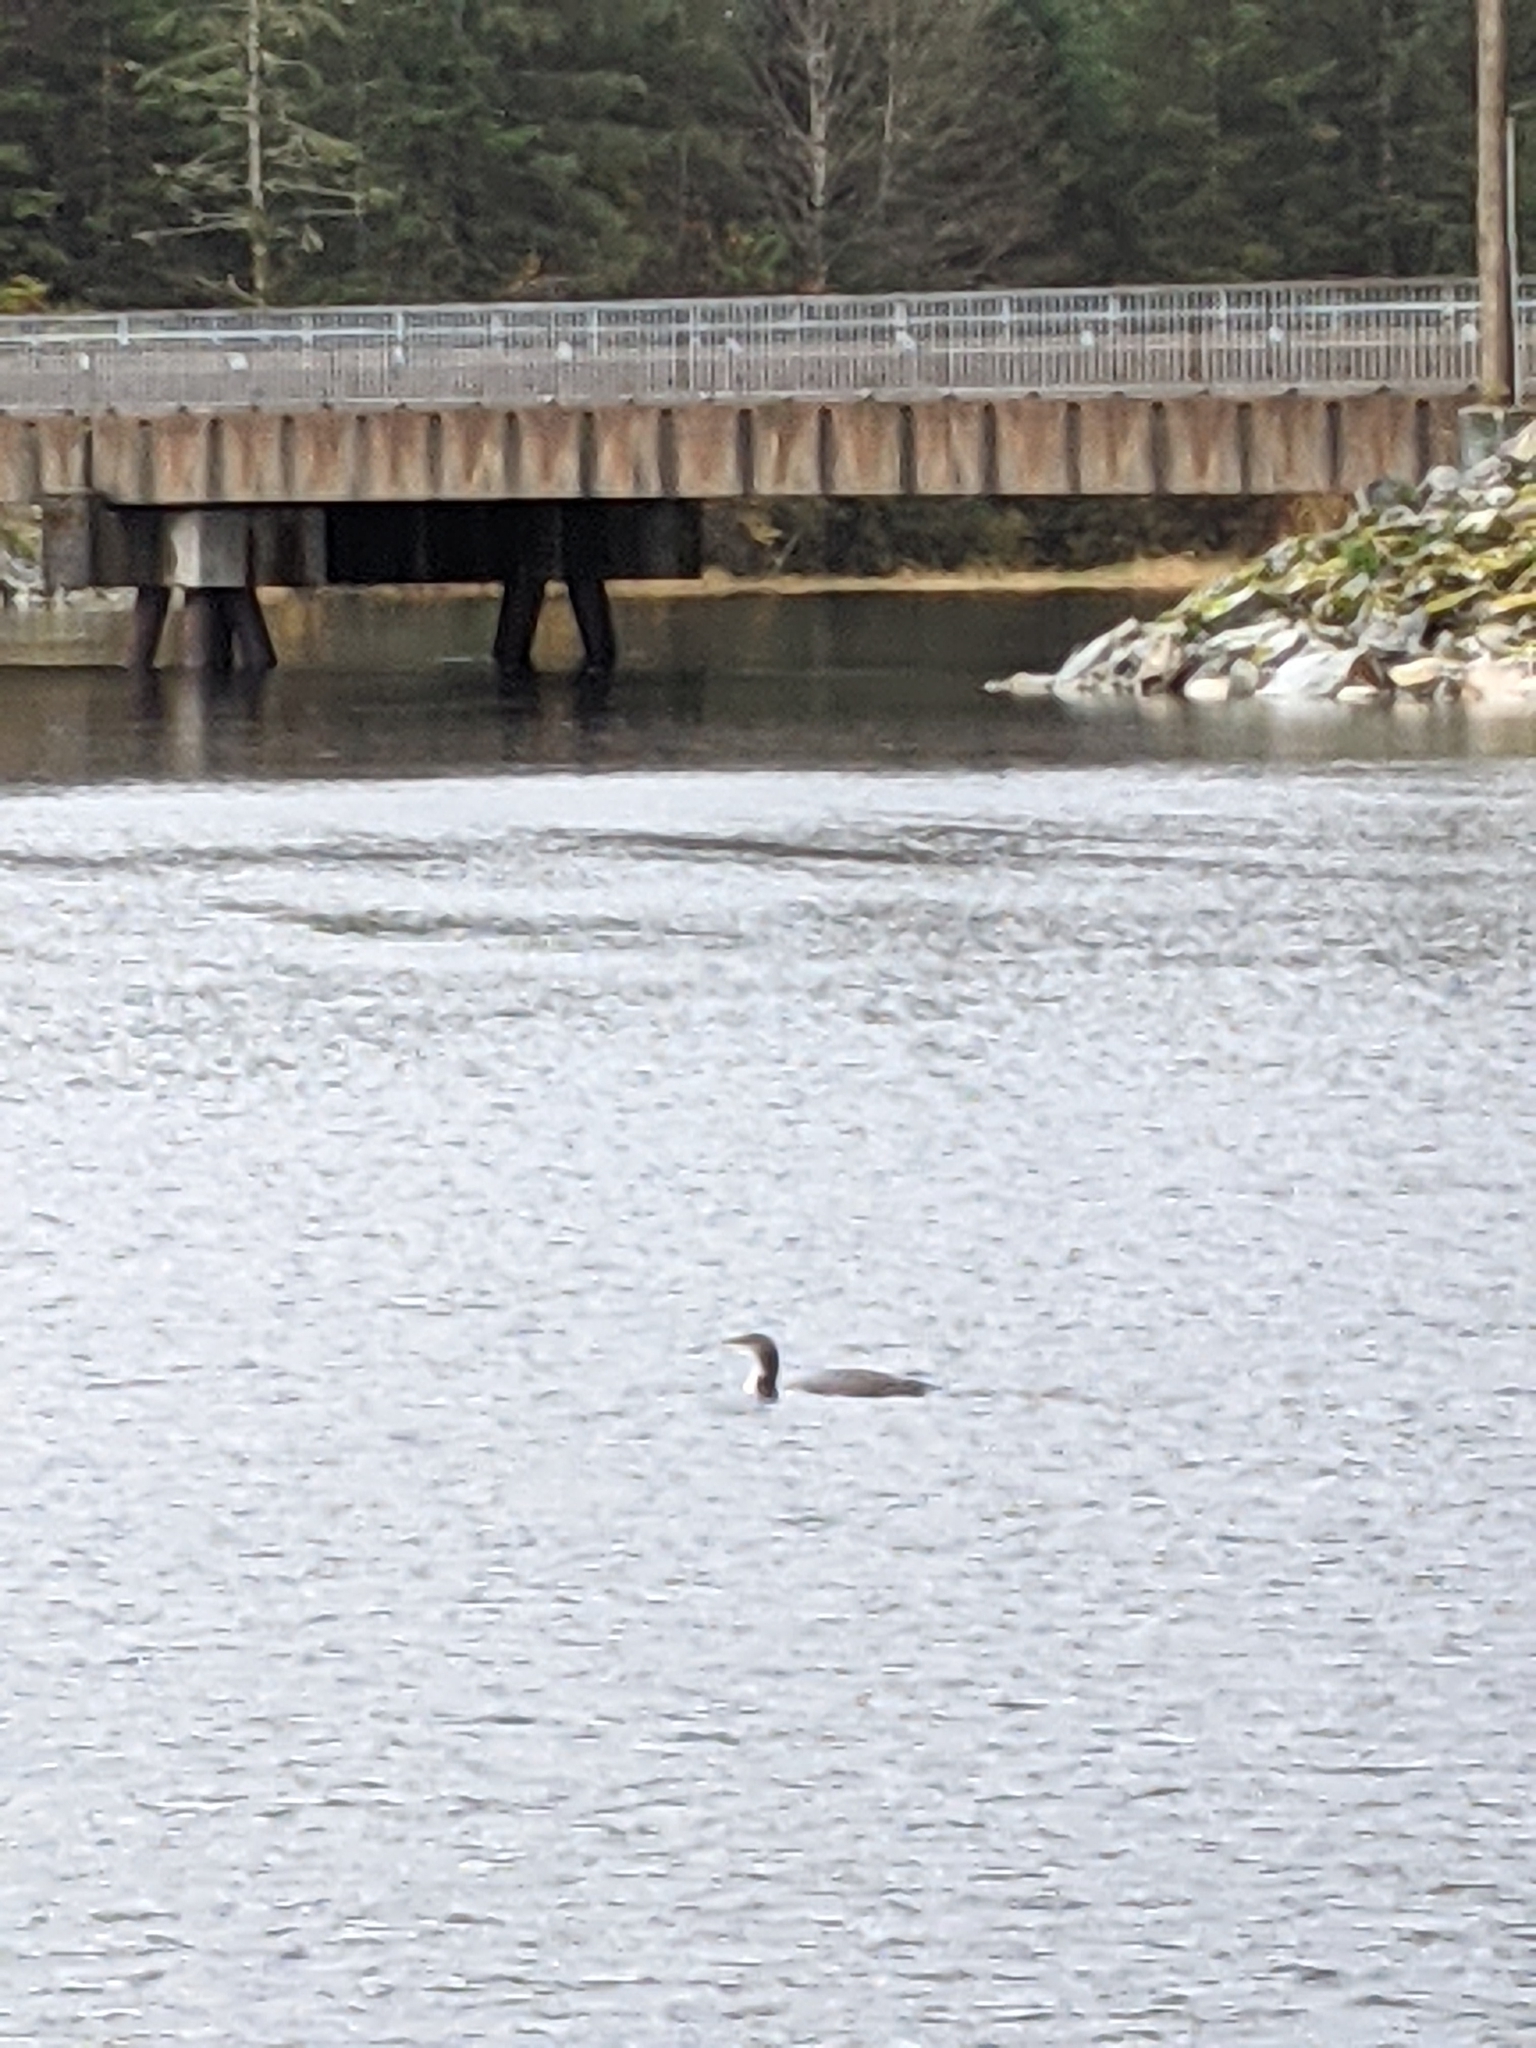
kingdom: Animalia
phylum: Chordata
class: Aves
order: Gaviiformes
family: Gaviidae
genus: Gavia
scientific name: Gavia immer
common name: Common loon
